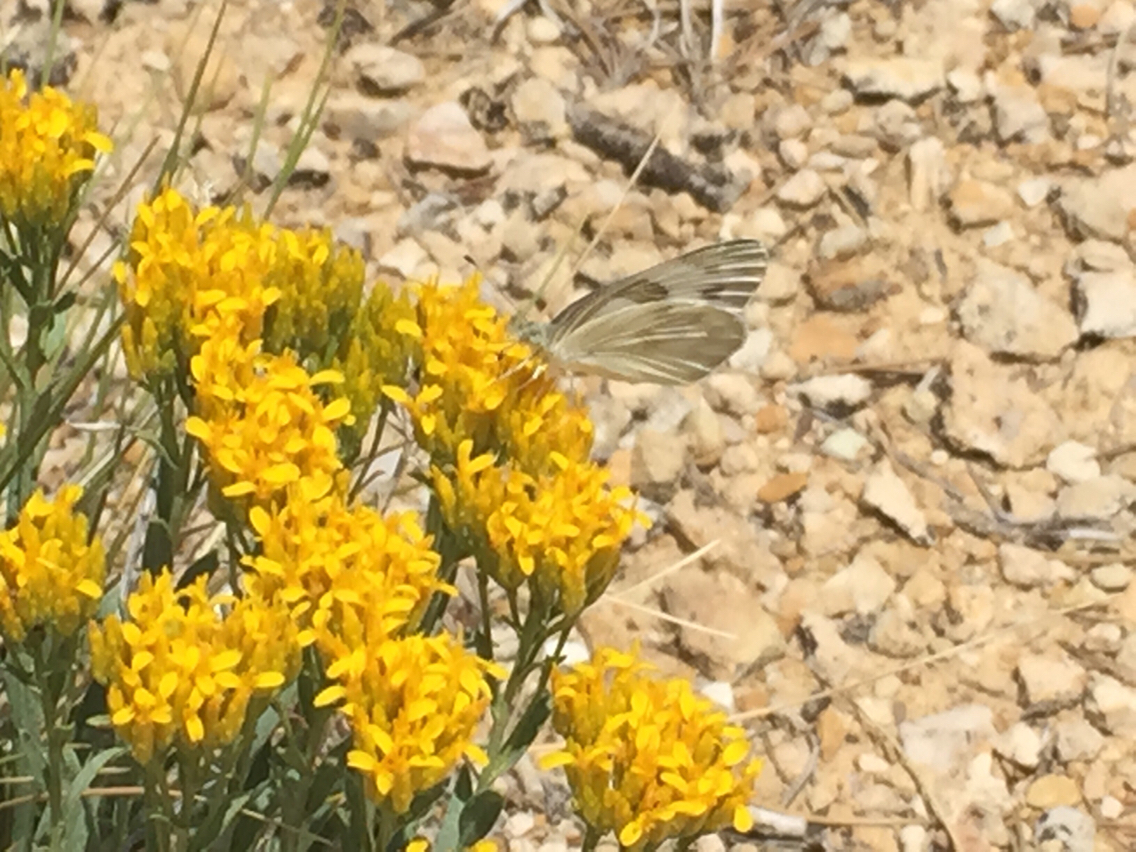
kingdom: Animalia
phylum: Arthropoda
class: Insecta
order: Lepidoptera
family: Pieridae
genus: Pontia
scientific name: Pontia protodice
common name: Checkered white
